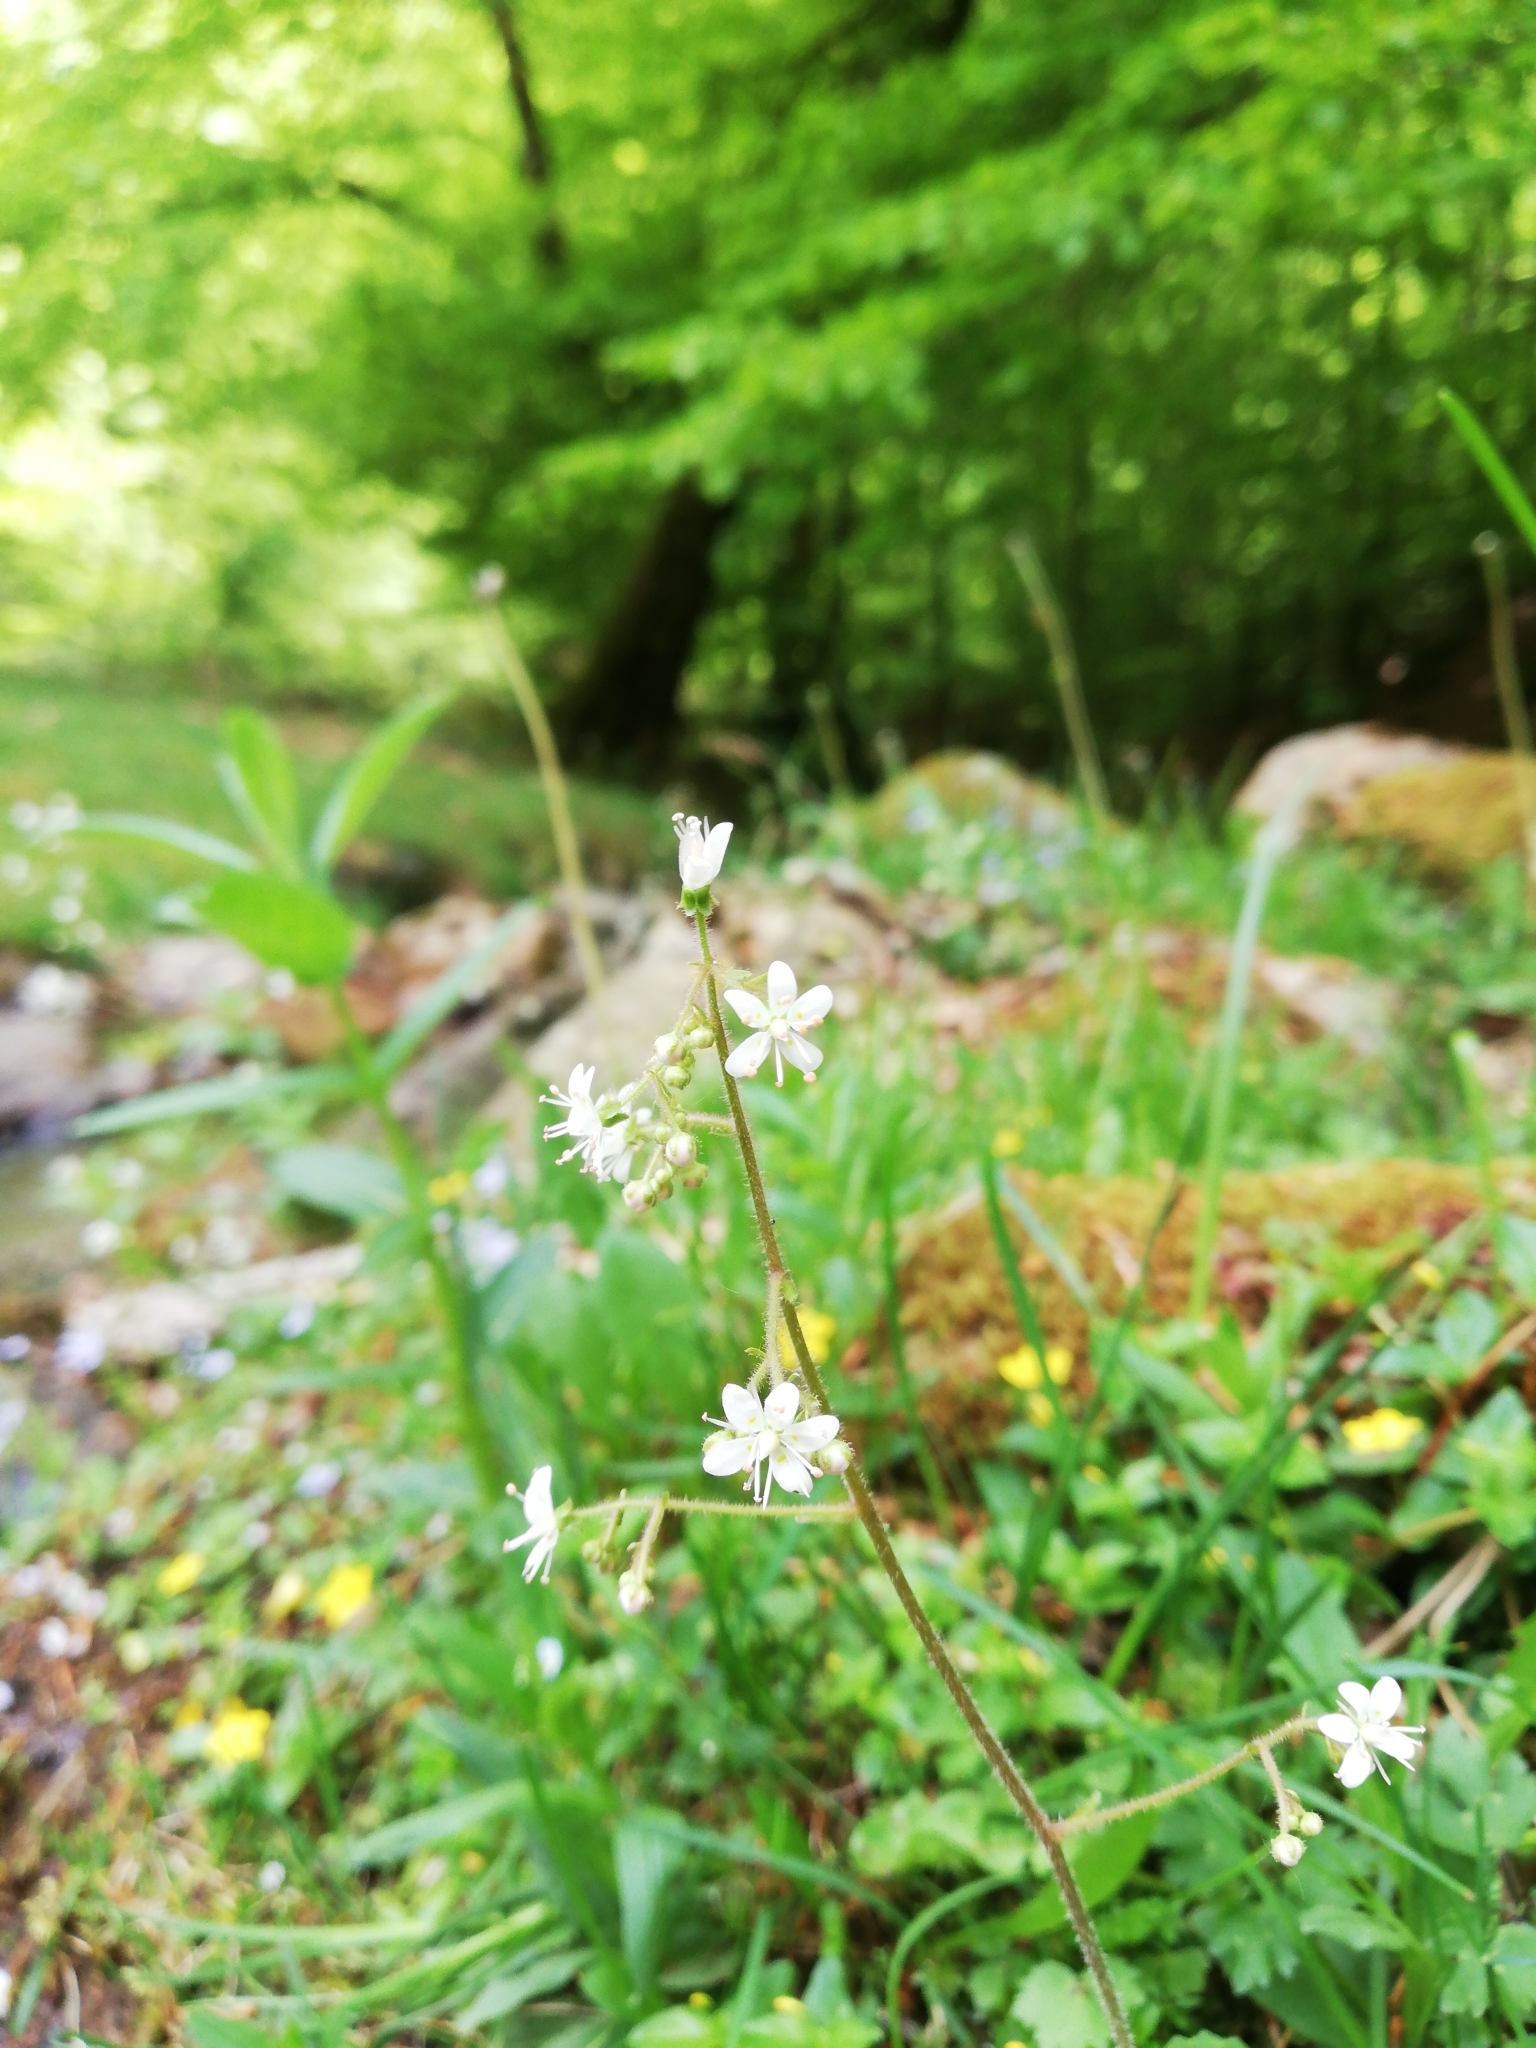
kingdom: Plantae
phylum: Tracheophyta
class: Magnoliopsida
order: Saxifragales
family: Saxifragaceae
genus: Saxifraga
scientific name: Saxifraga hirsuta
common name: Kidney saxifrage
